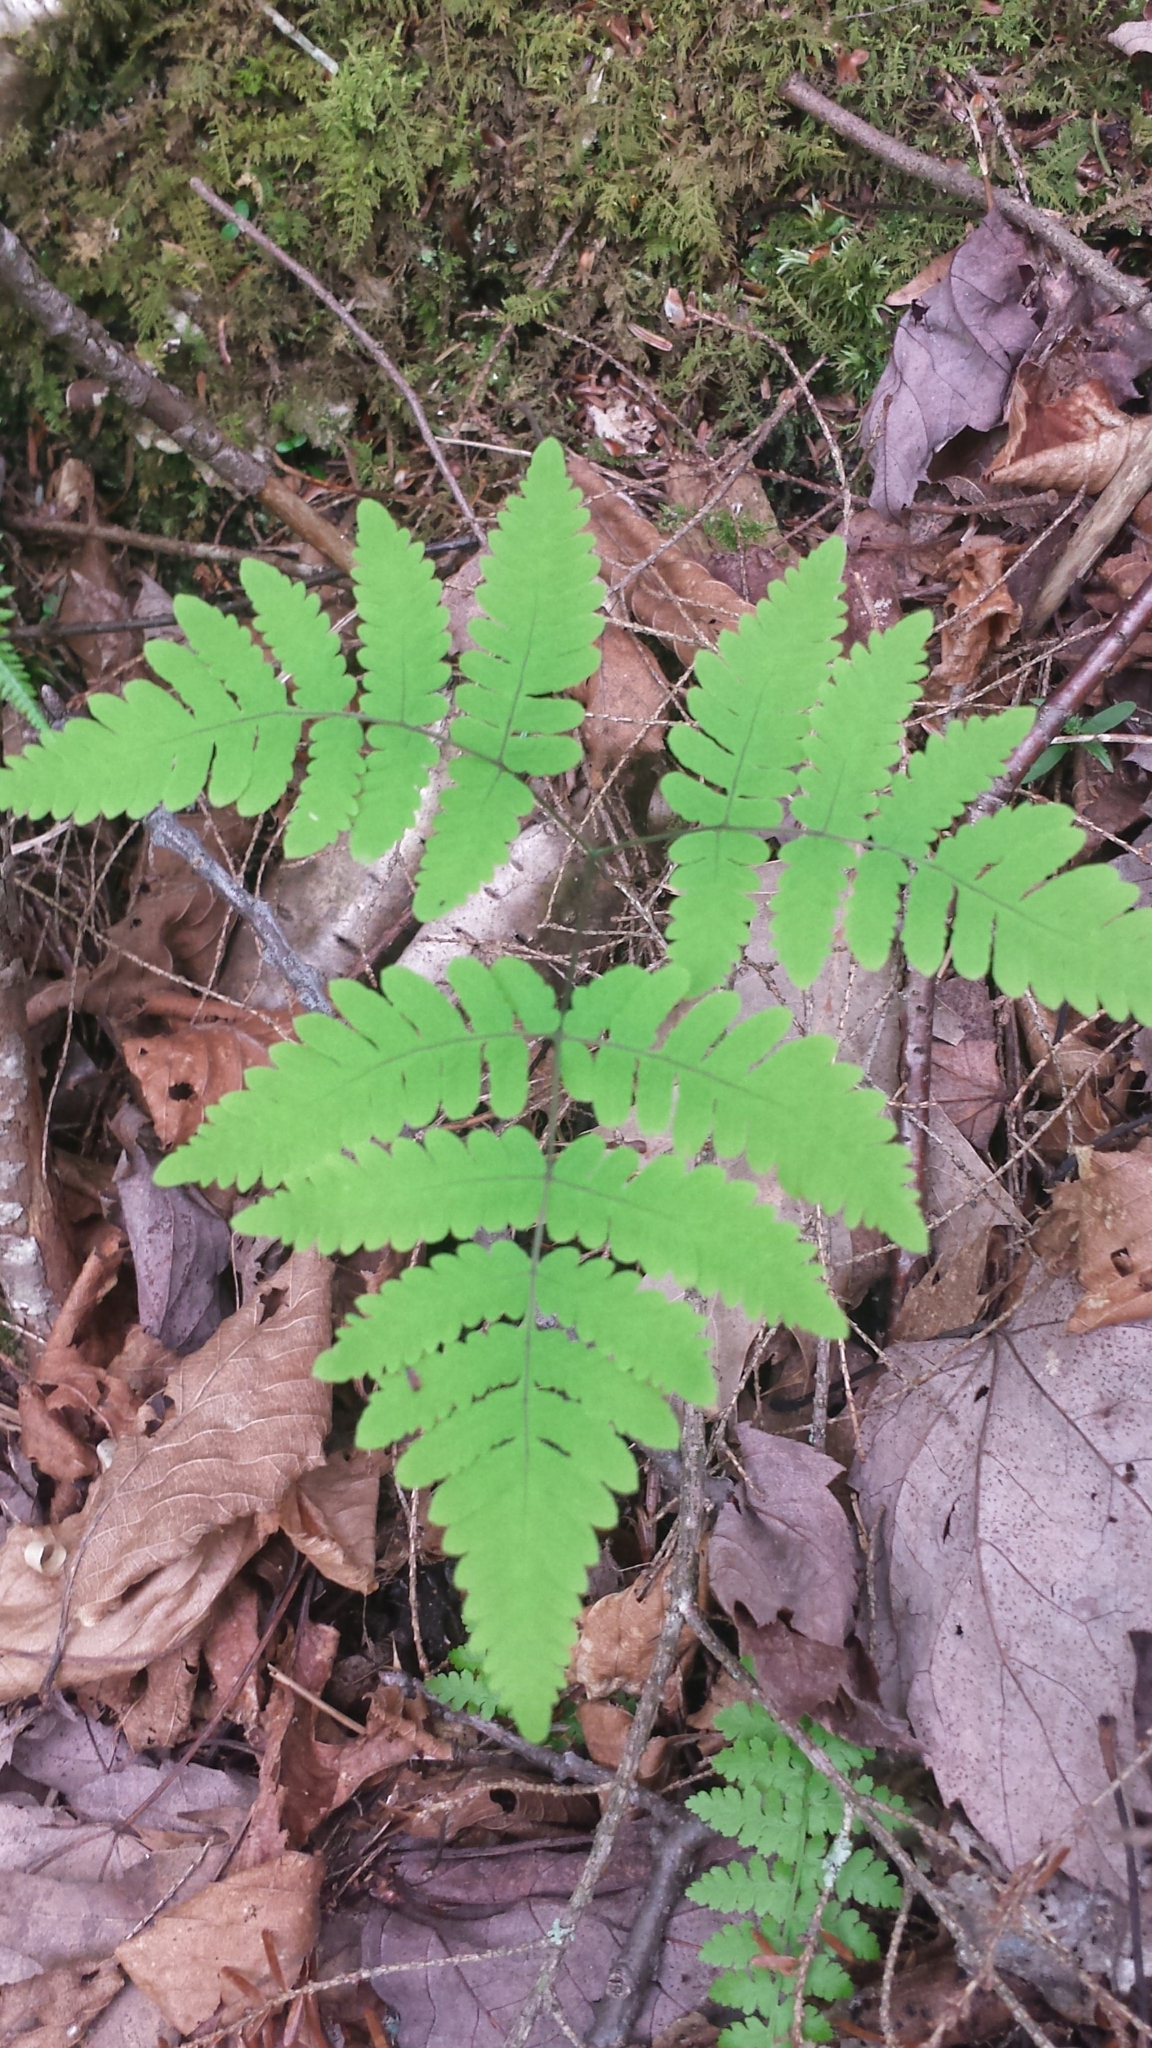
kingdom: Plantae
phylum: Tracheophyta
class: Polypodiopsida
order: Polypodiales
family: Cystopteridaceae
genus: Gymnocarpium
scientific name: Gymnocarpium dryopteris
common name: Oak fern
